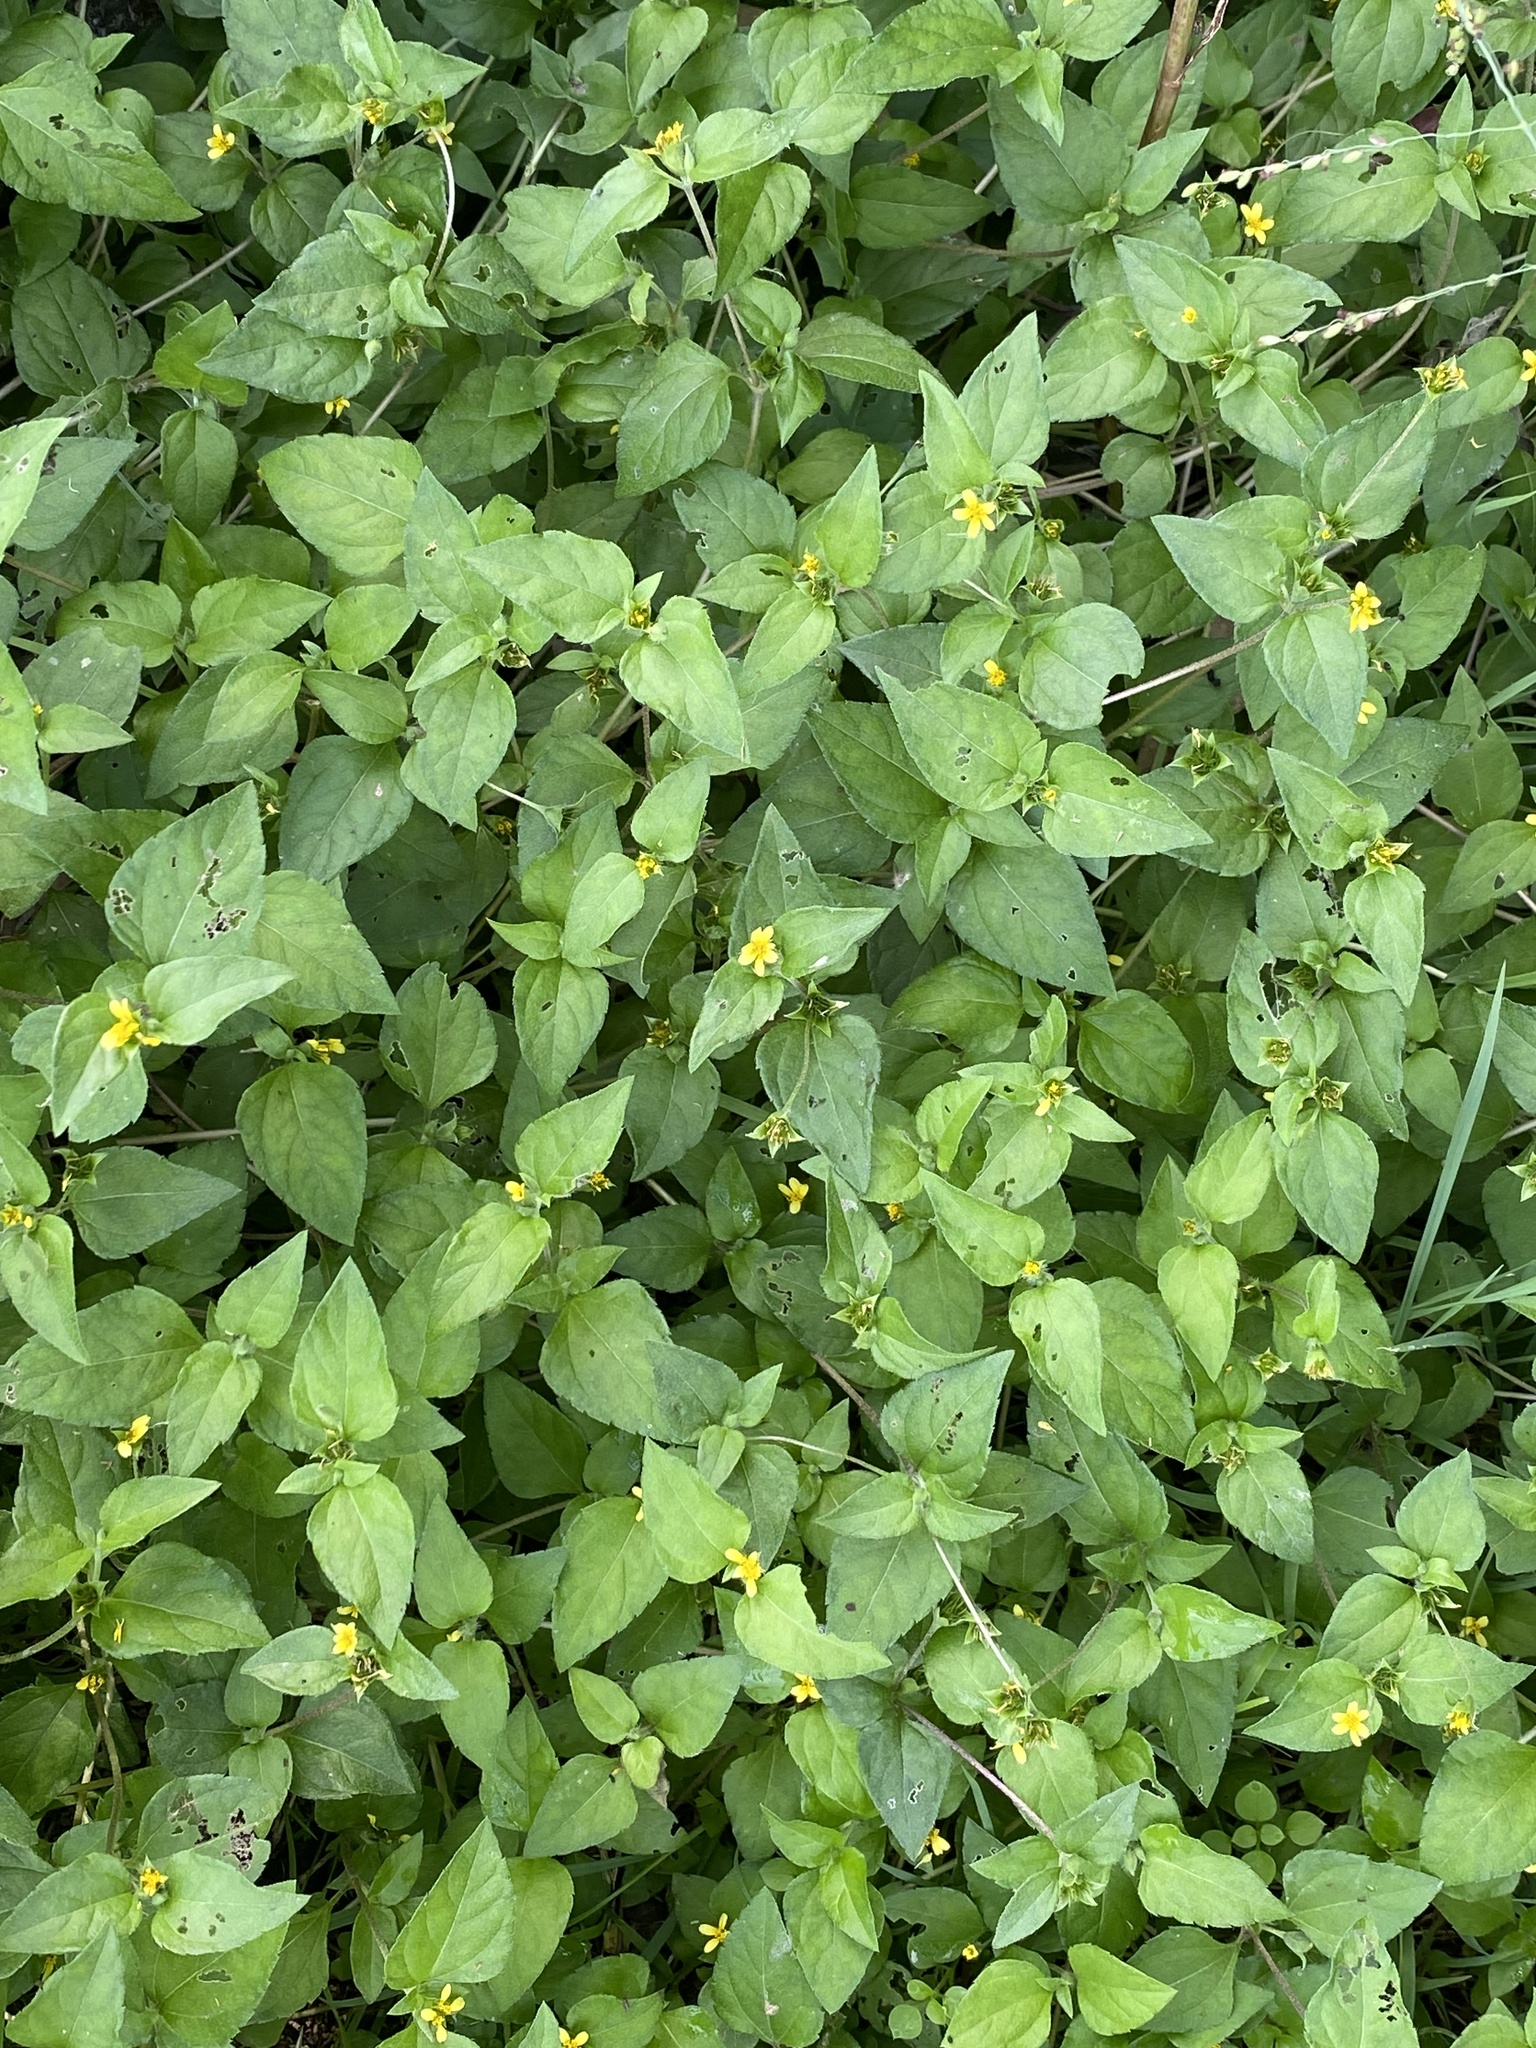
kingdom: Plantae
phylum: Tracheophyta
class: Magnoliopsida
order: Asterales
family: Asteraceae
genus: Calyptocarpus
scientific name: Calyptocarpus vialis
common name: Straggler daisy
